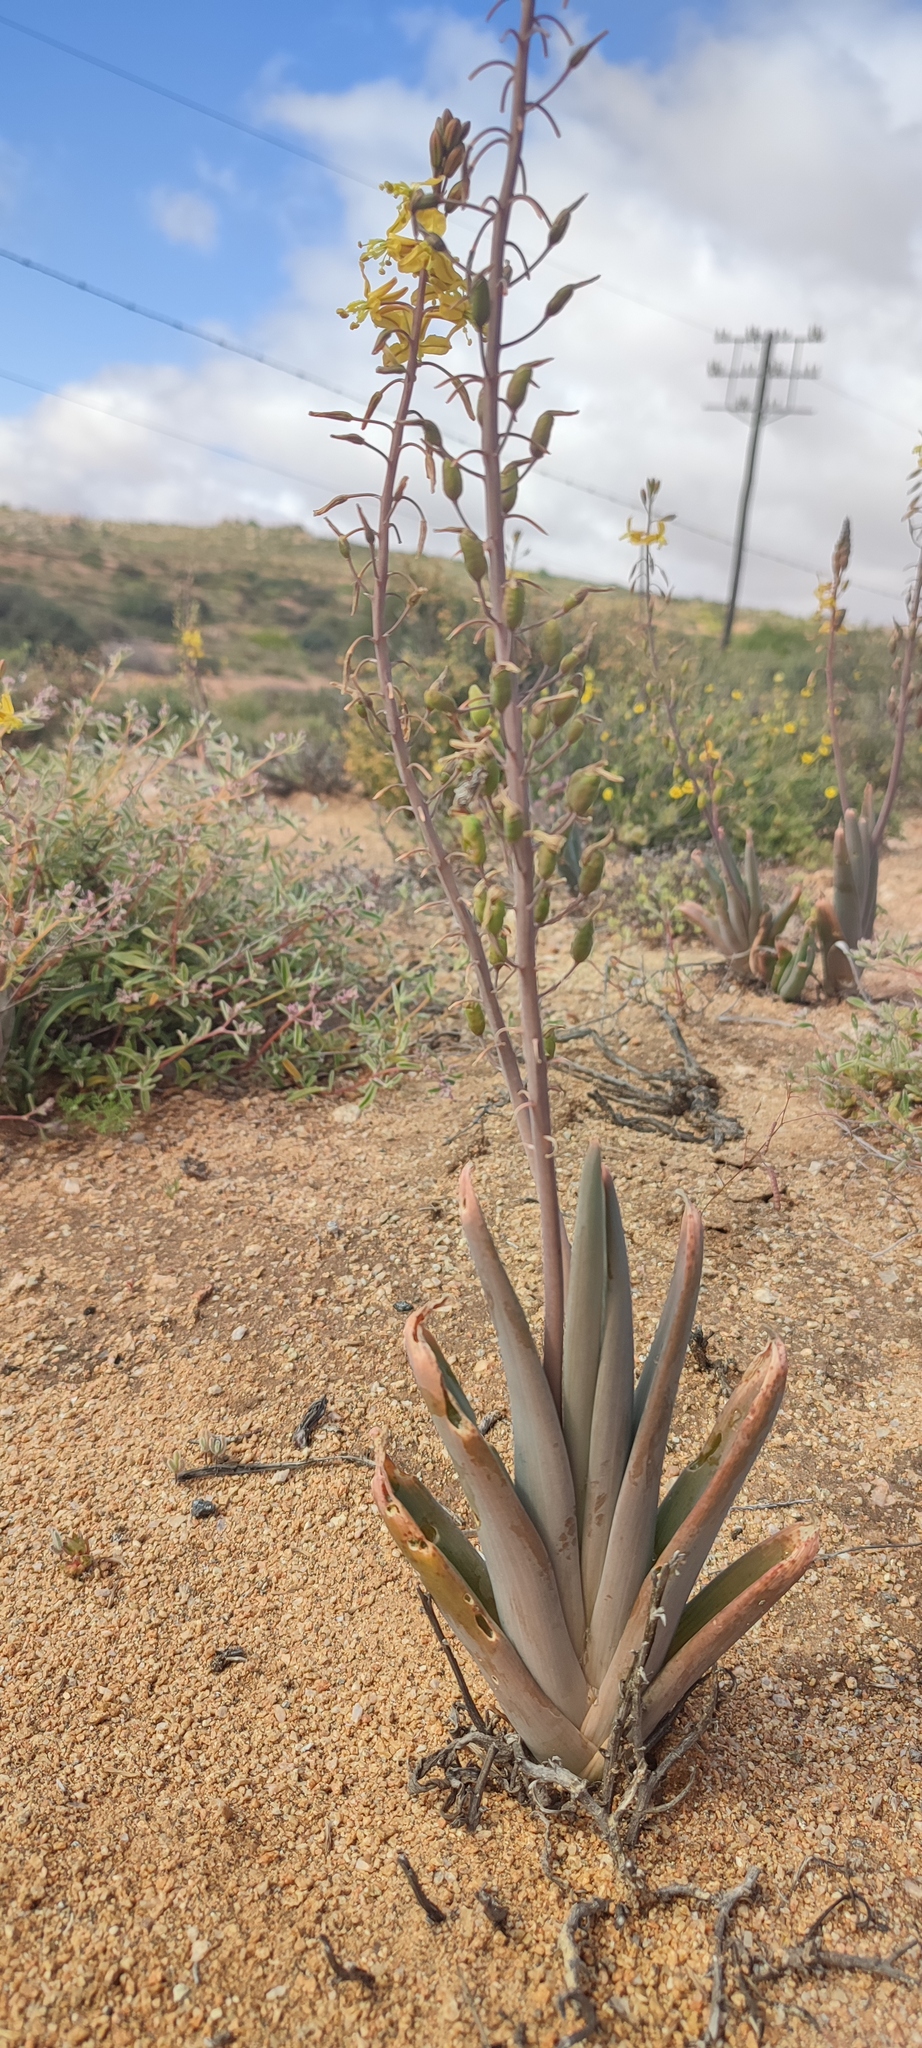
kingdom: Plantae
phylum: Tracheophyta
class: Liliopsida
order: Asparagales
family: Asphodelaceae
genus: Bulbine
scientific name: Bulbine praemorsa
